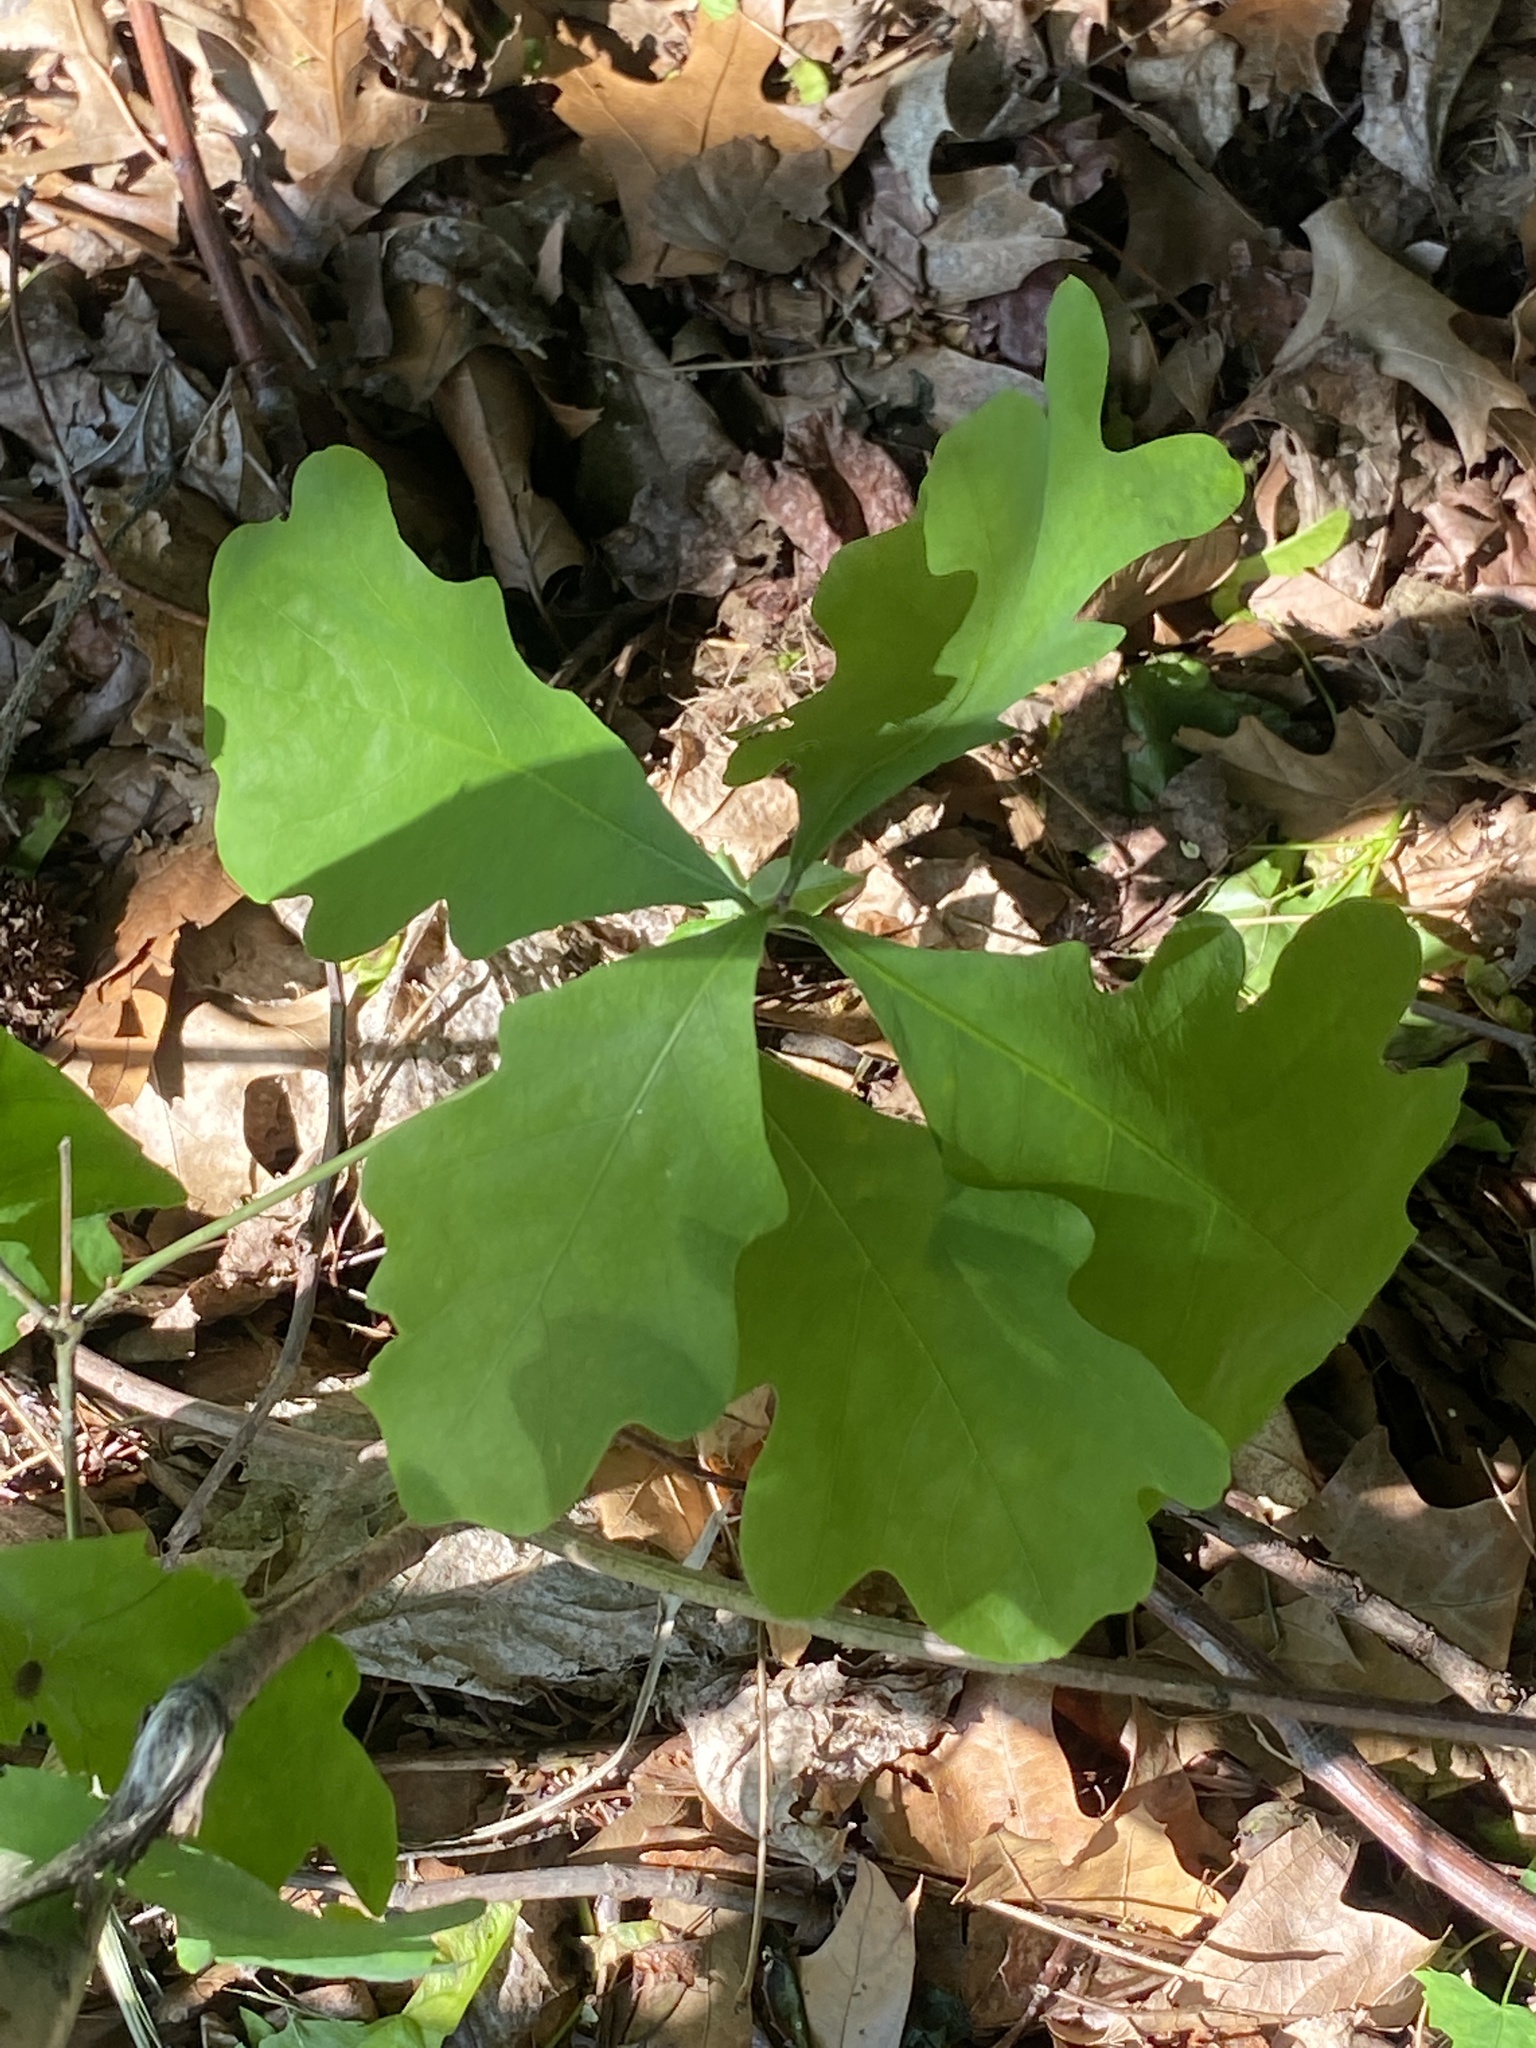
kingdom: Plantae
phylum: Tracheophyta
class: Magnoliopsida
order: Fagales
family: Fagaceae
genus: Quercus
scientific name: Quercus alba
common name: White oak
